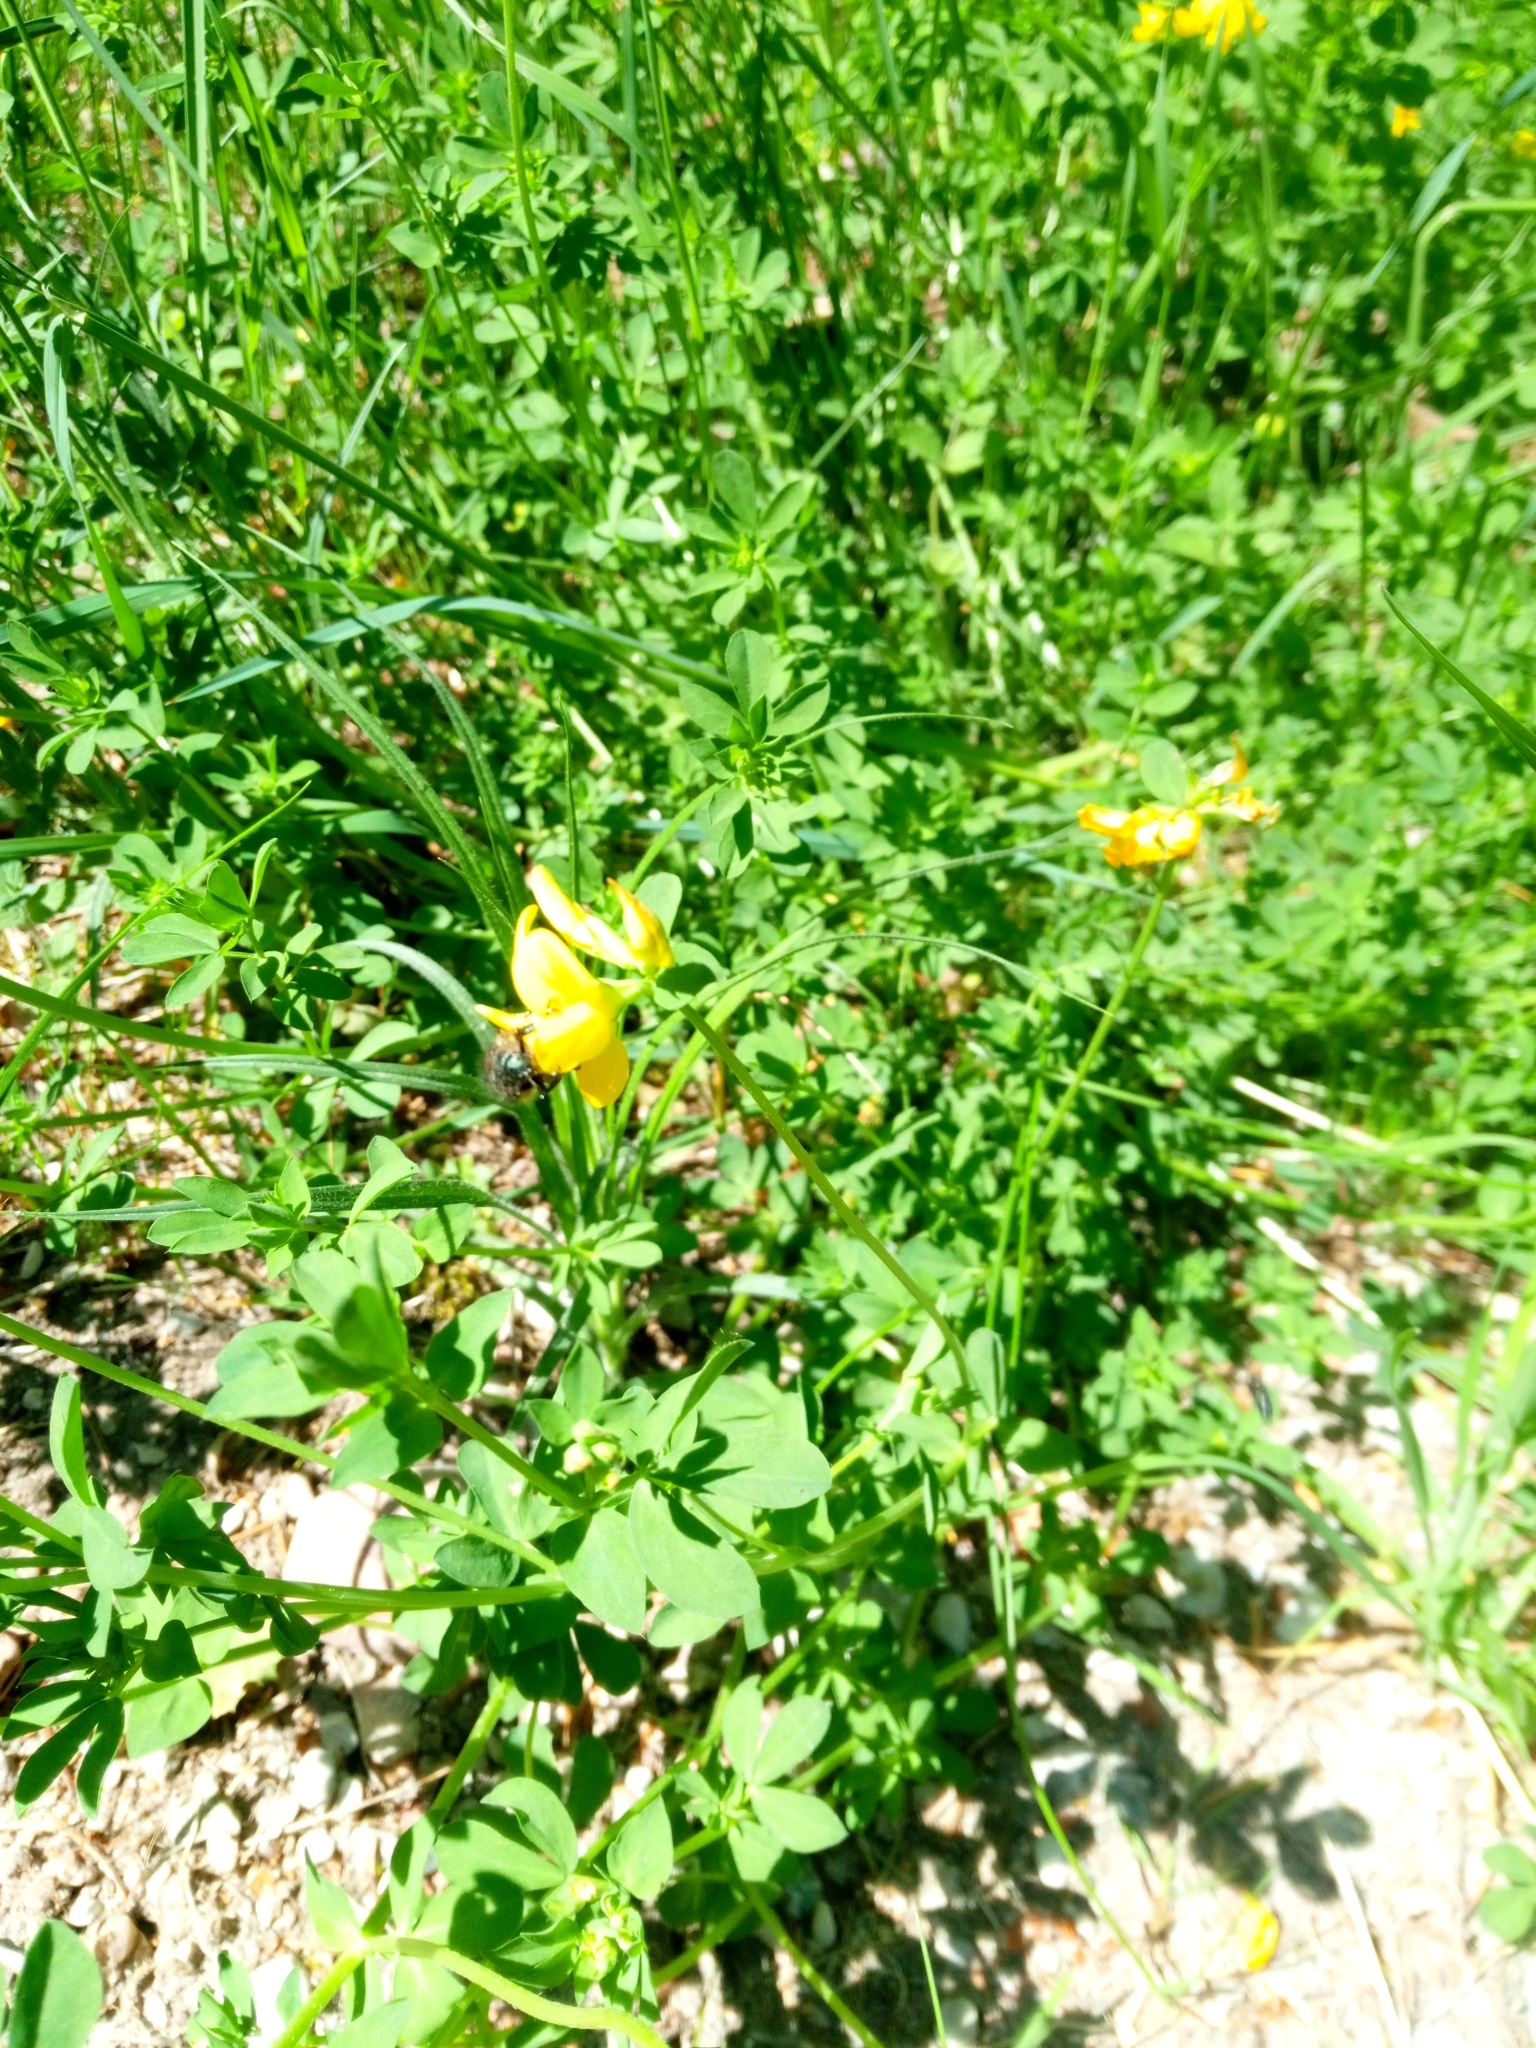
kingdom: Plantae
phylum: Tracheophyta
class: Magnoliopsida
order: Fabales
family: Fabaceae
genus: Lotus
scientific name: Lotus corniculatus
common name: Common bird's-foot-trefoil
